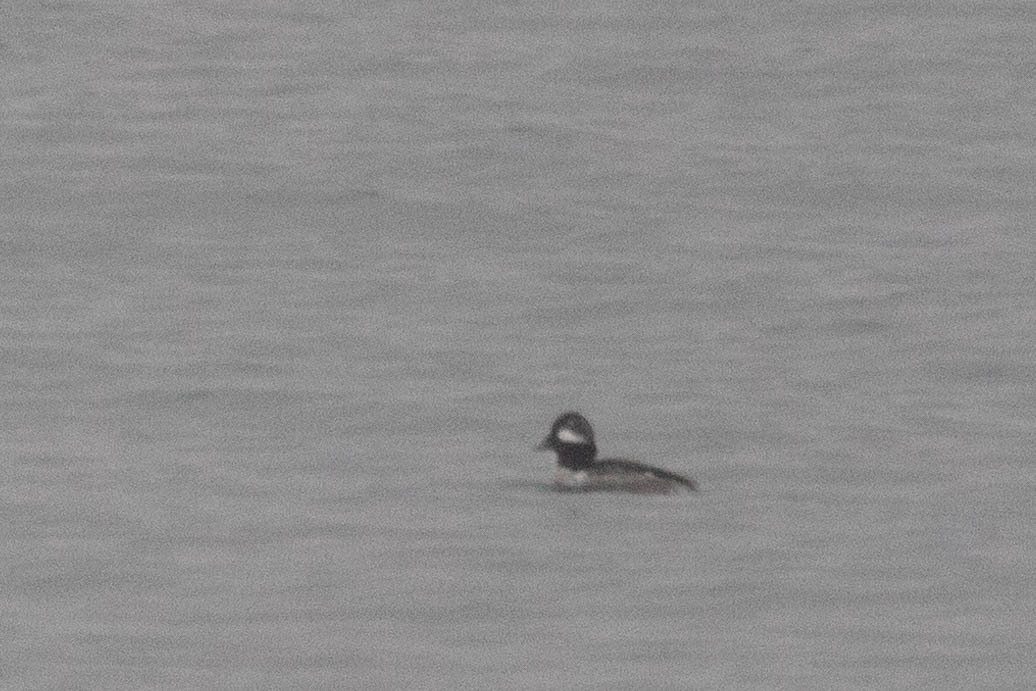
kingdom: Animalia
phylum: Chordata
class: Aves
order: Anseriformes
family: Anatidae
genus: Bucephala
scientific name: Bucephala albeola
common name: Bufflehead
